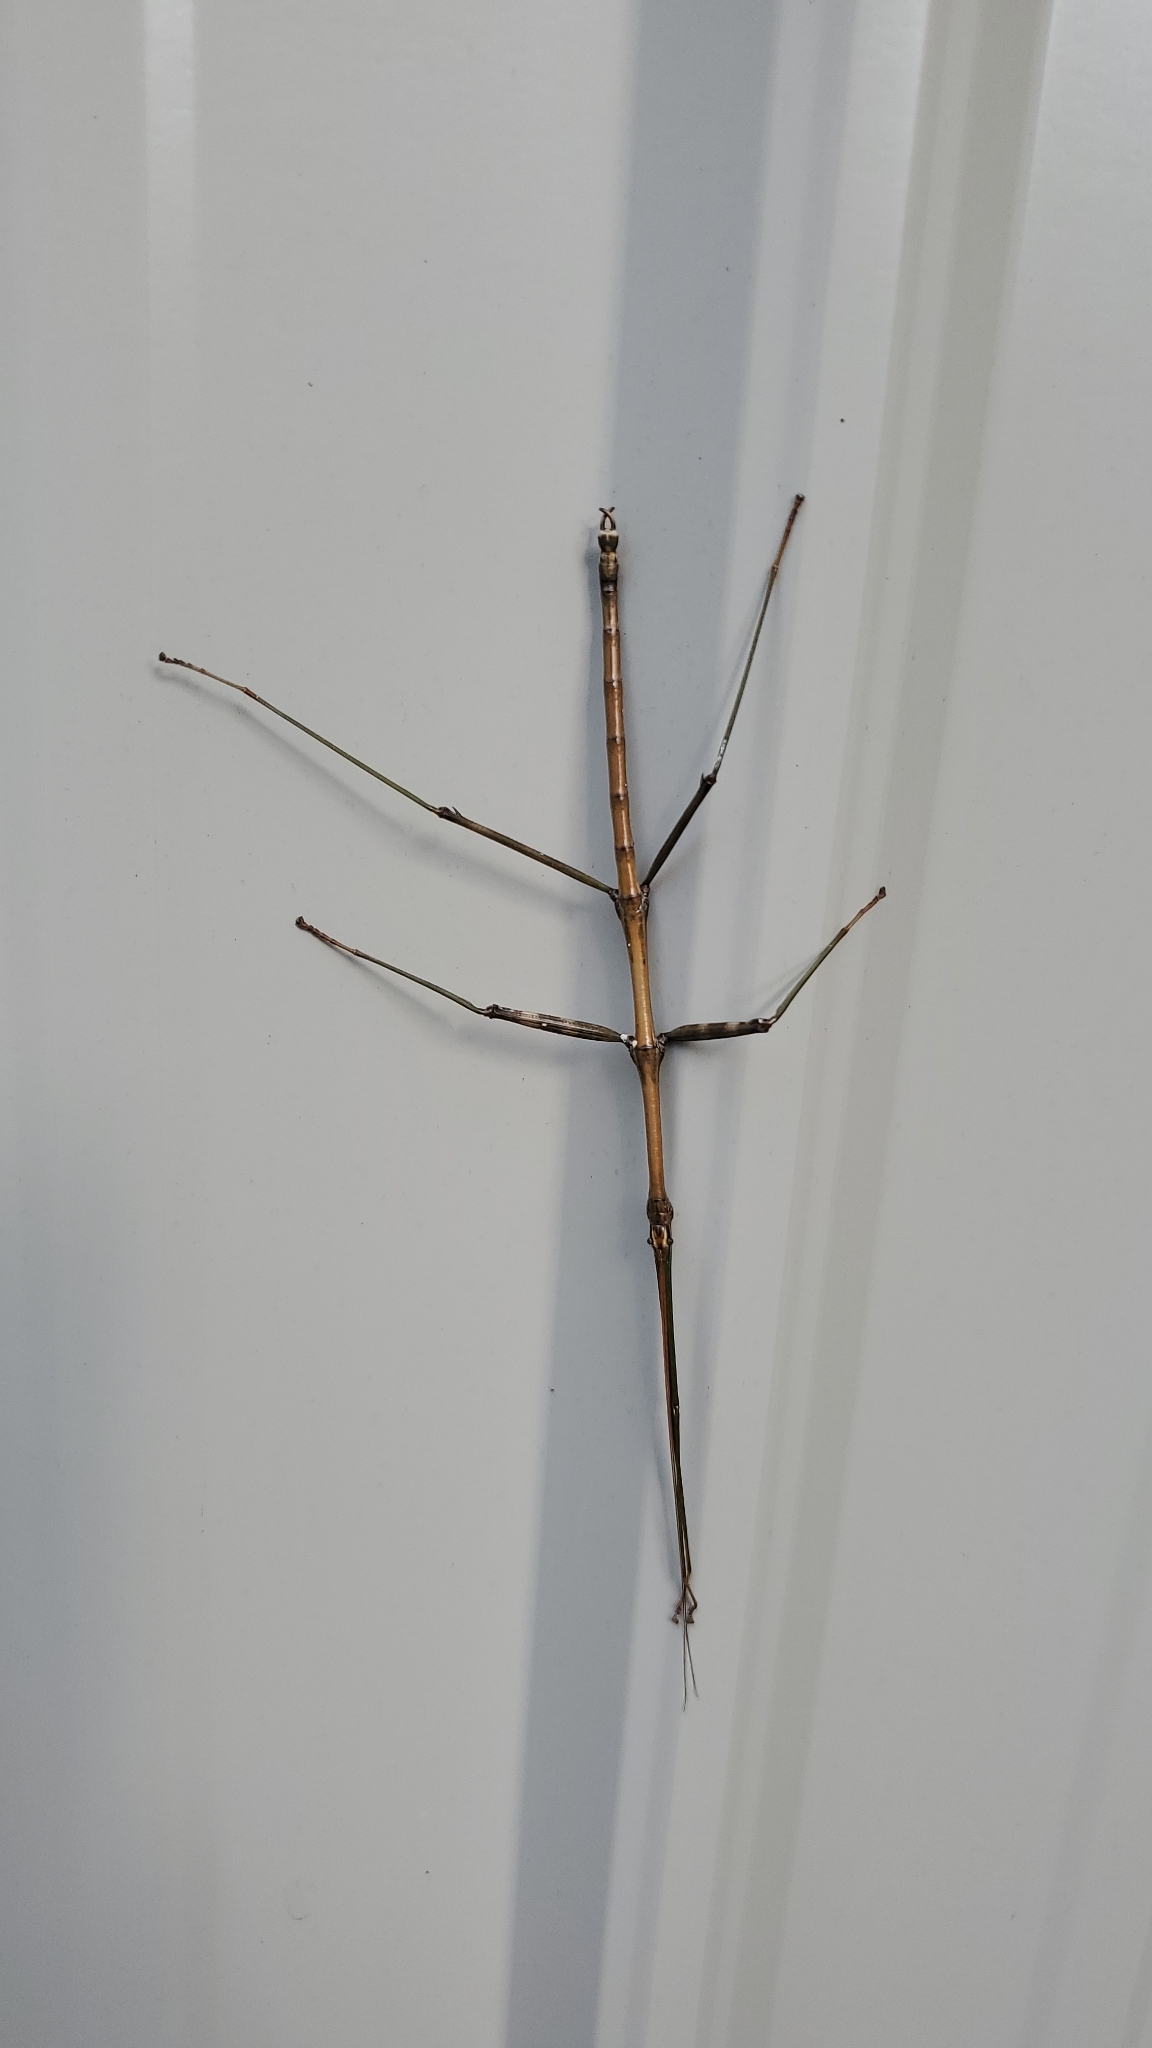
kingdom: Animalia
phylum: Arthropoda
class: Insecta
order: Phasmida
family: Diapheromeridae
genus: Diapheromera
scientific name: Diapheromera femorata
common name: Common american walkingstick
